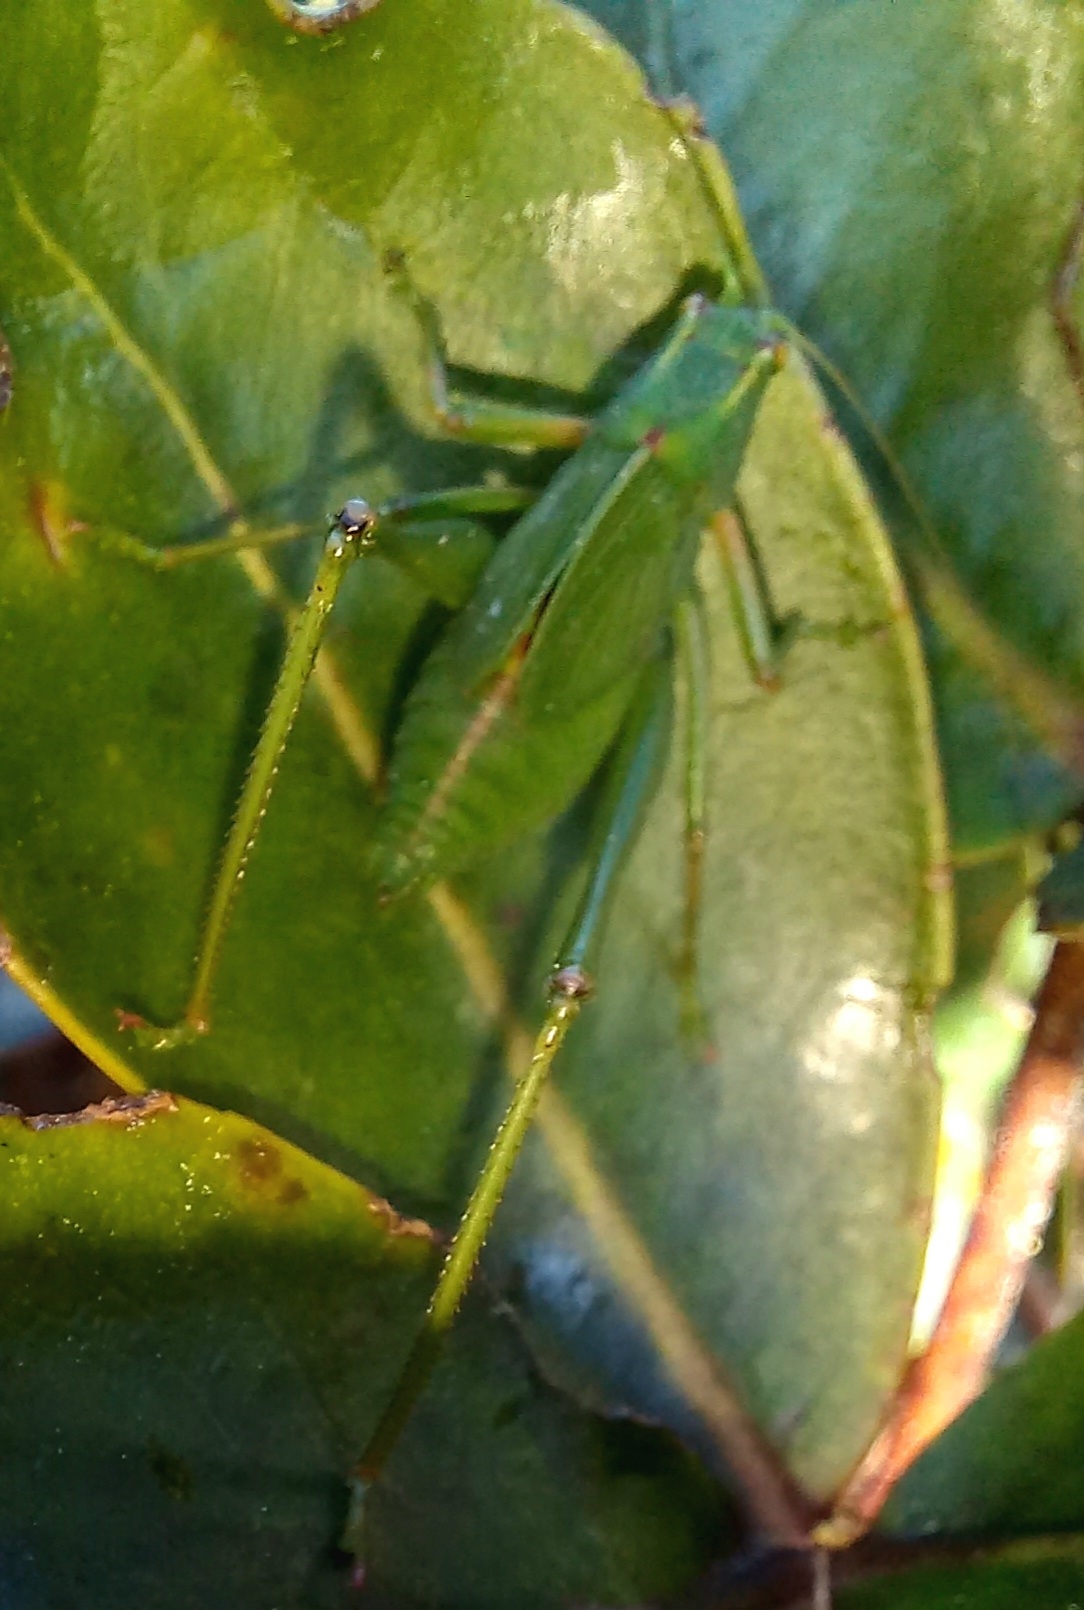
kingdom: Animalia
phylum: Arthropoda
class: Insecta
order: Orthoptera
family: Tettigoniidae
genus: Caedicia
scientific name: Caedicia simplex
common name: Common garden katydid
